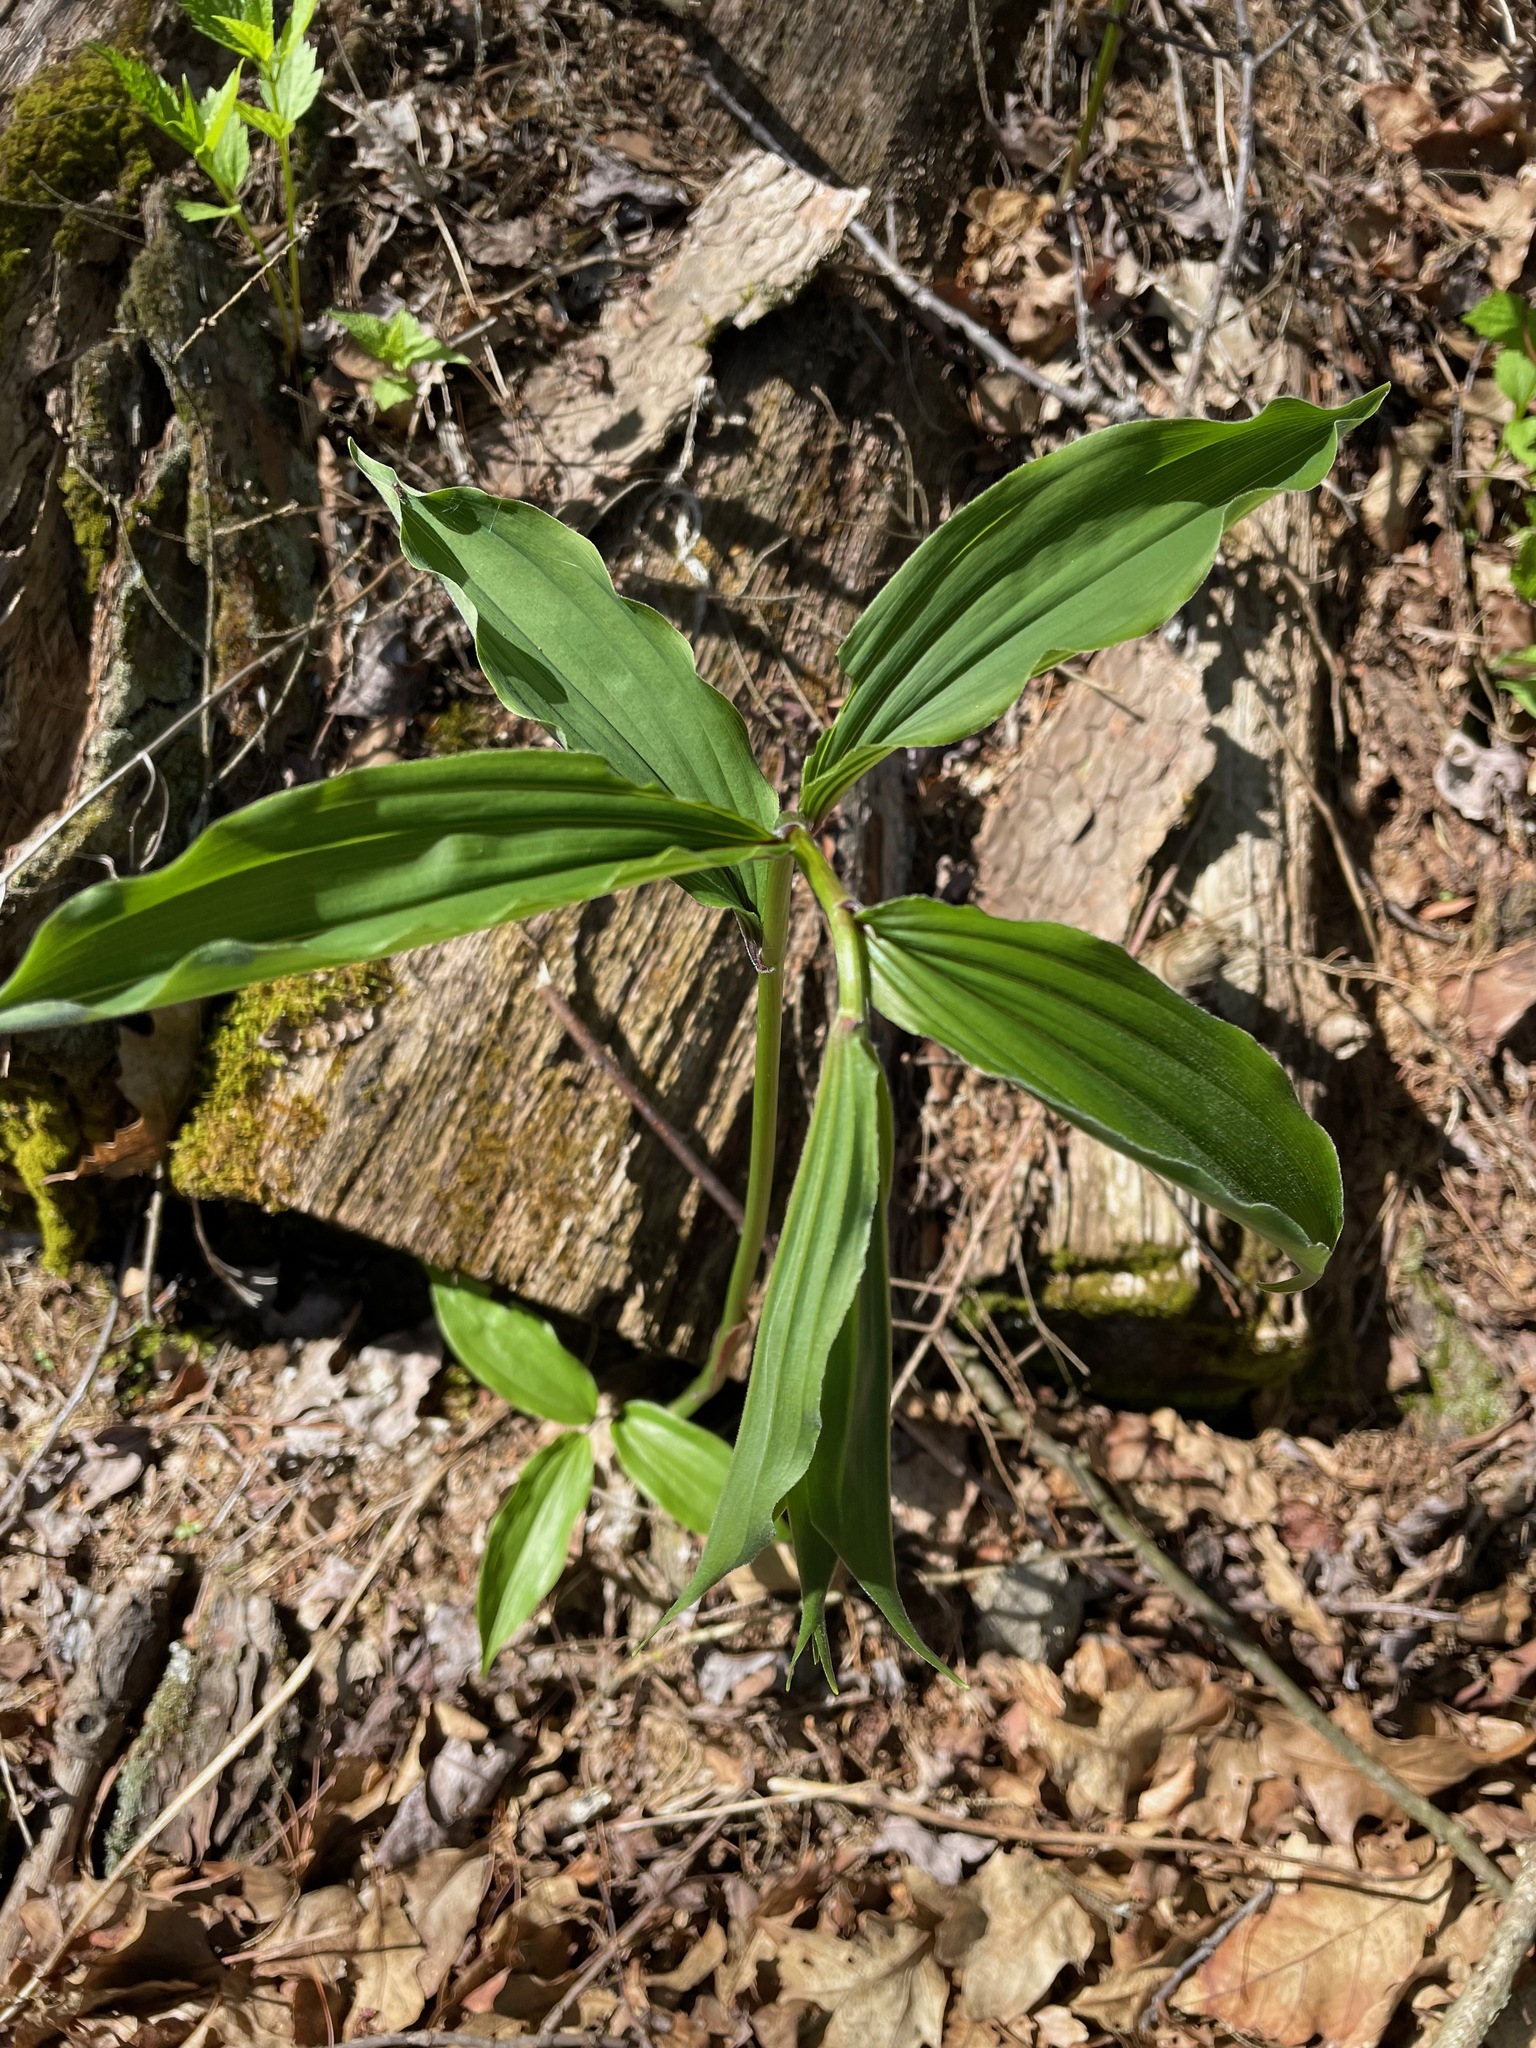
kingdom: Plantae
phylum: Tracheophyta
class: Liliopsida
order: Asparagales
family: Asparagaceae
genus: Maianthemum
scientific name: Maianthemum racemosum
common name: False spikenard
